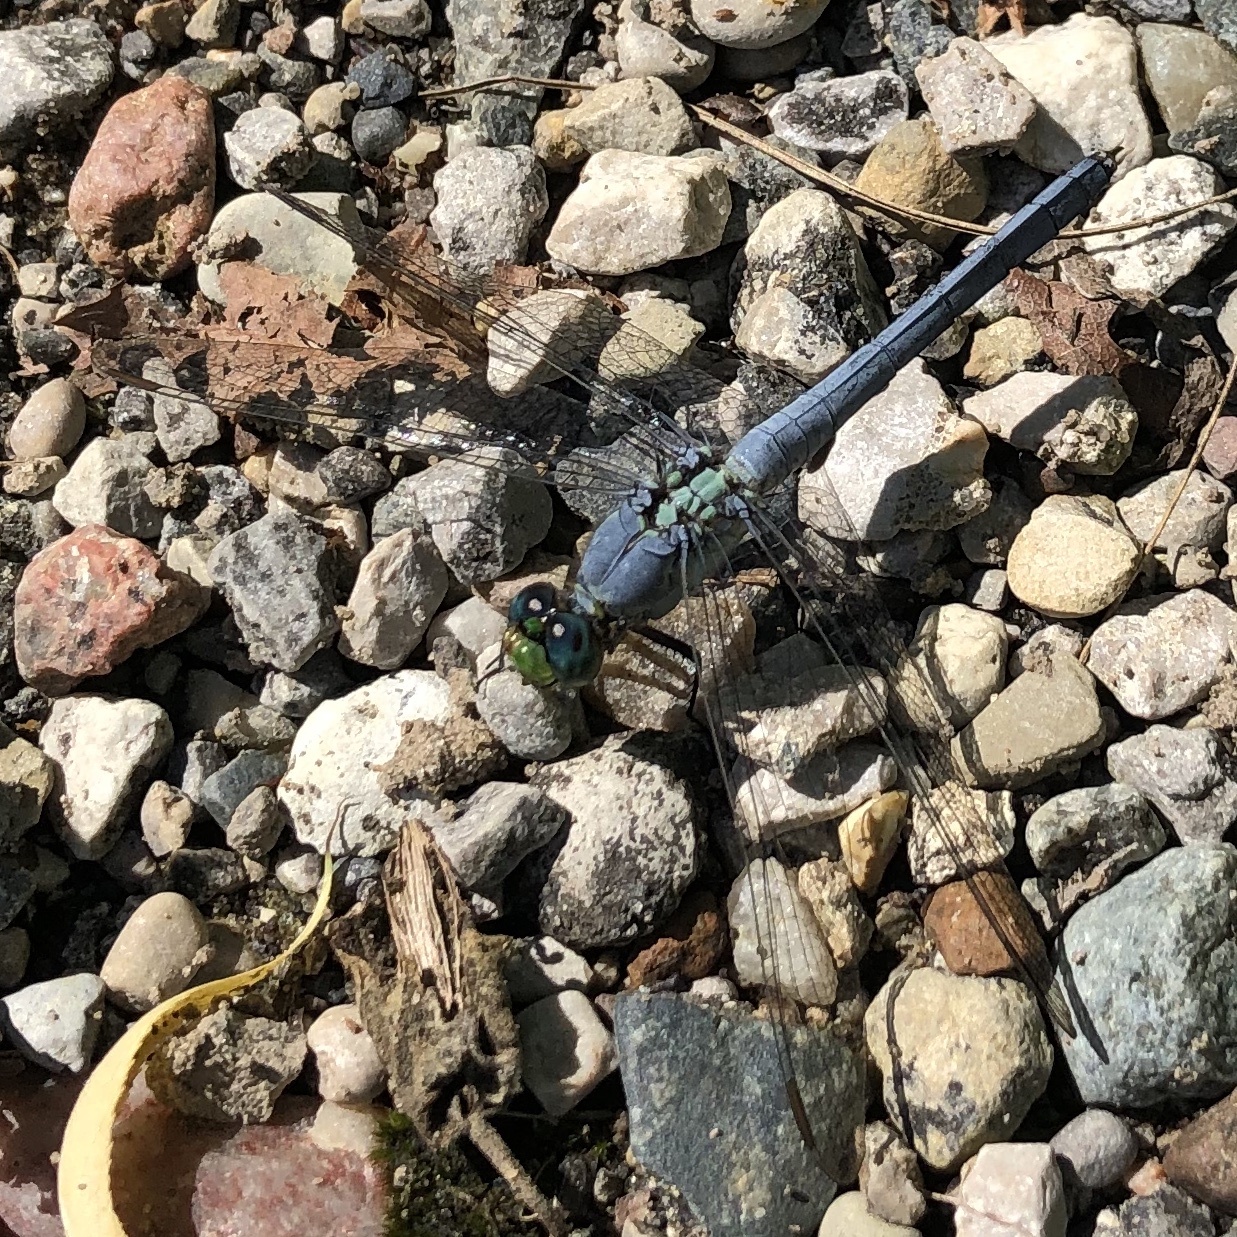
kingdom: Animalia
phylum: Arthropoda
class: Insecta
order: Odonata
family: Libellulidae
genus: Erythemis
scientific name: Erythemis simplicicollis
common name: Eastern pondhawk
